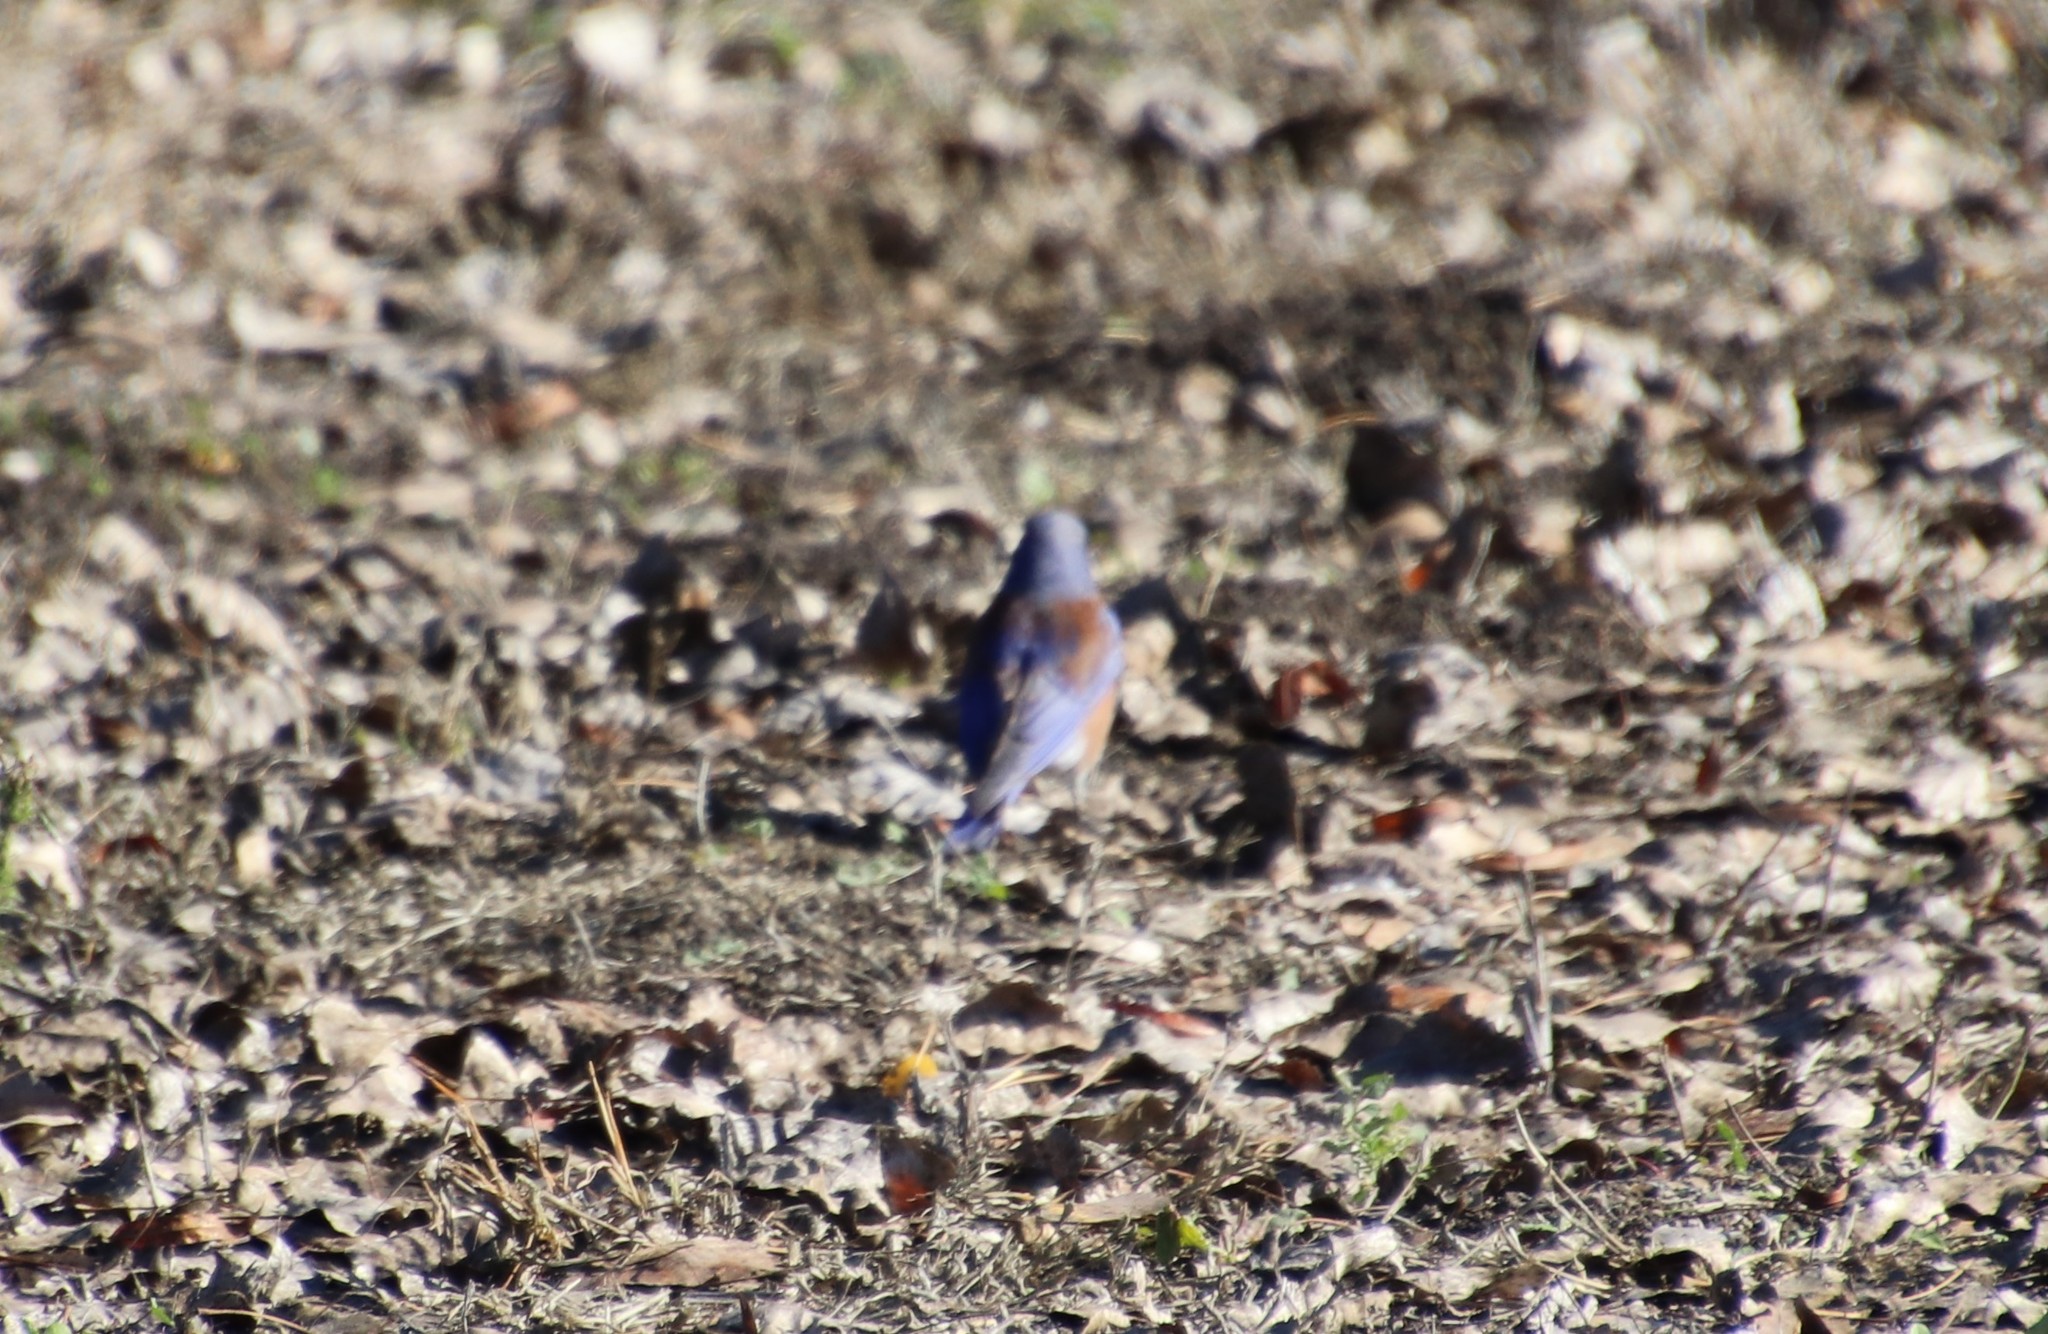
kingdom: Animalia
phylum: Chordata
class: Aves
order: Passeriformes
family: Turdidae
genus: Sialia
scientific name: Sialia mexicana
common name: Western bluebird
